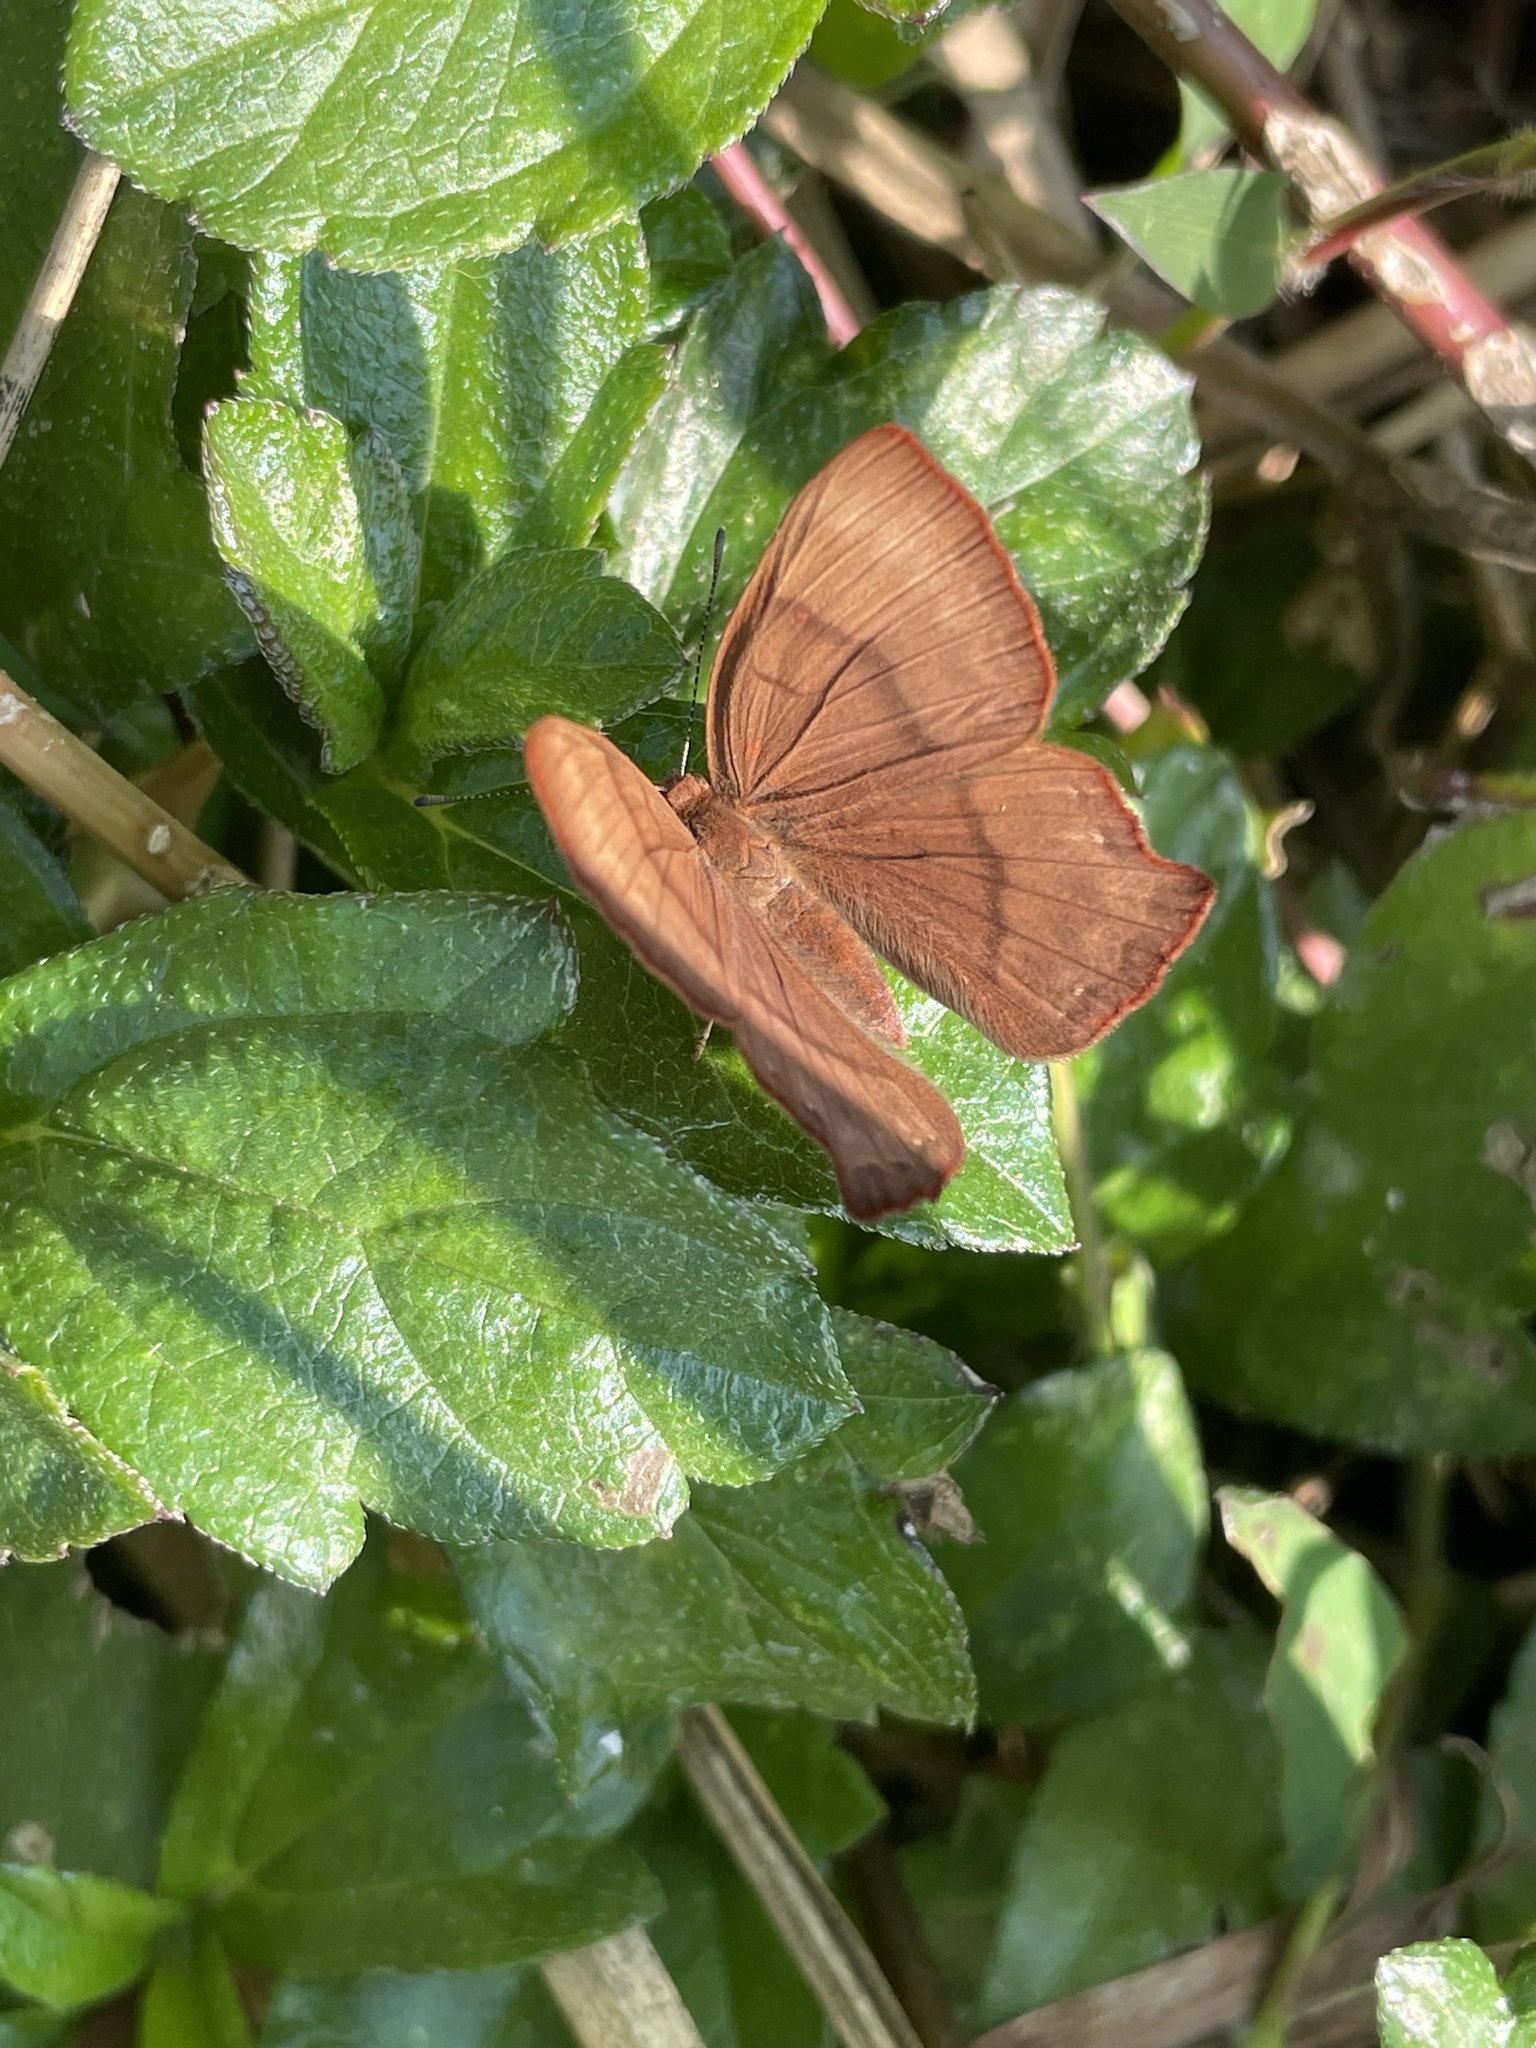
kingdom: Animalia
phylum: Arthropoda
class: Insecta
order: Lepidoptera
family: Lycaenidae
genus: Abisara
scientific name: Abisara echeria
